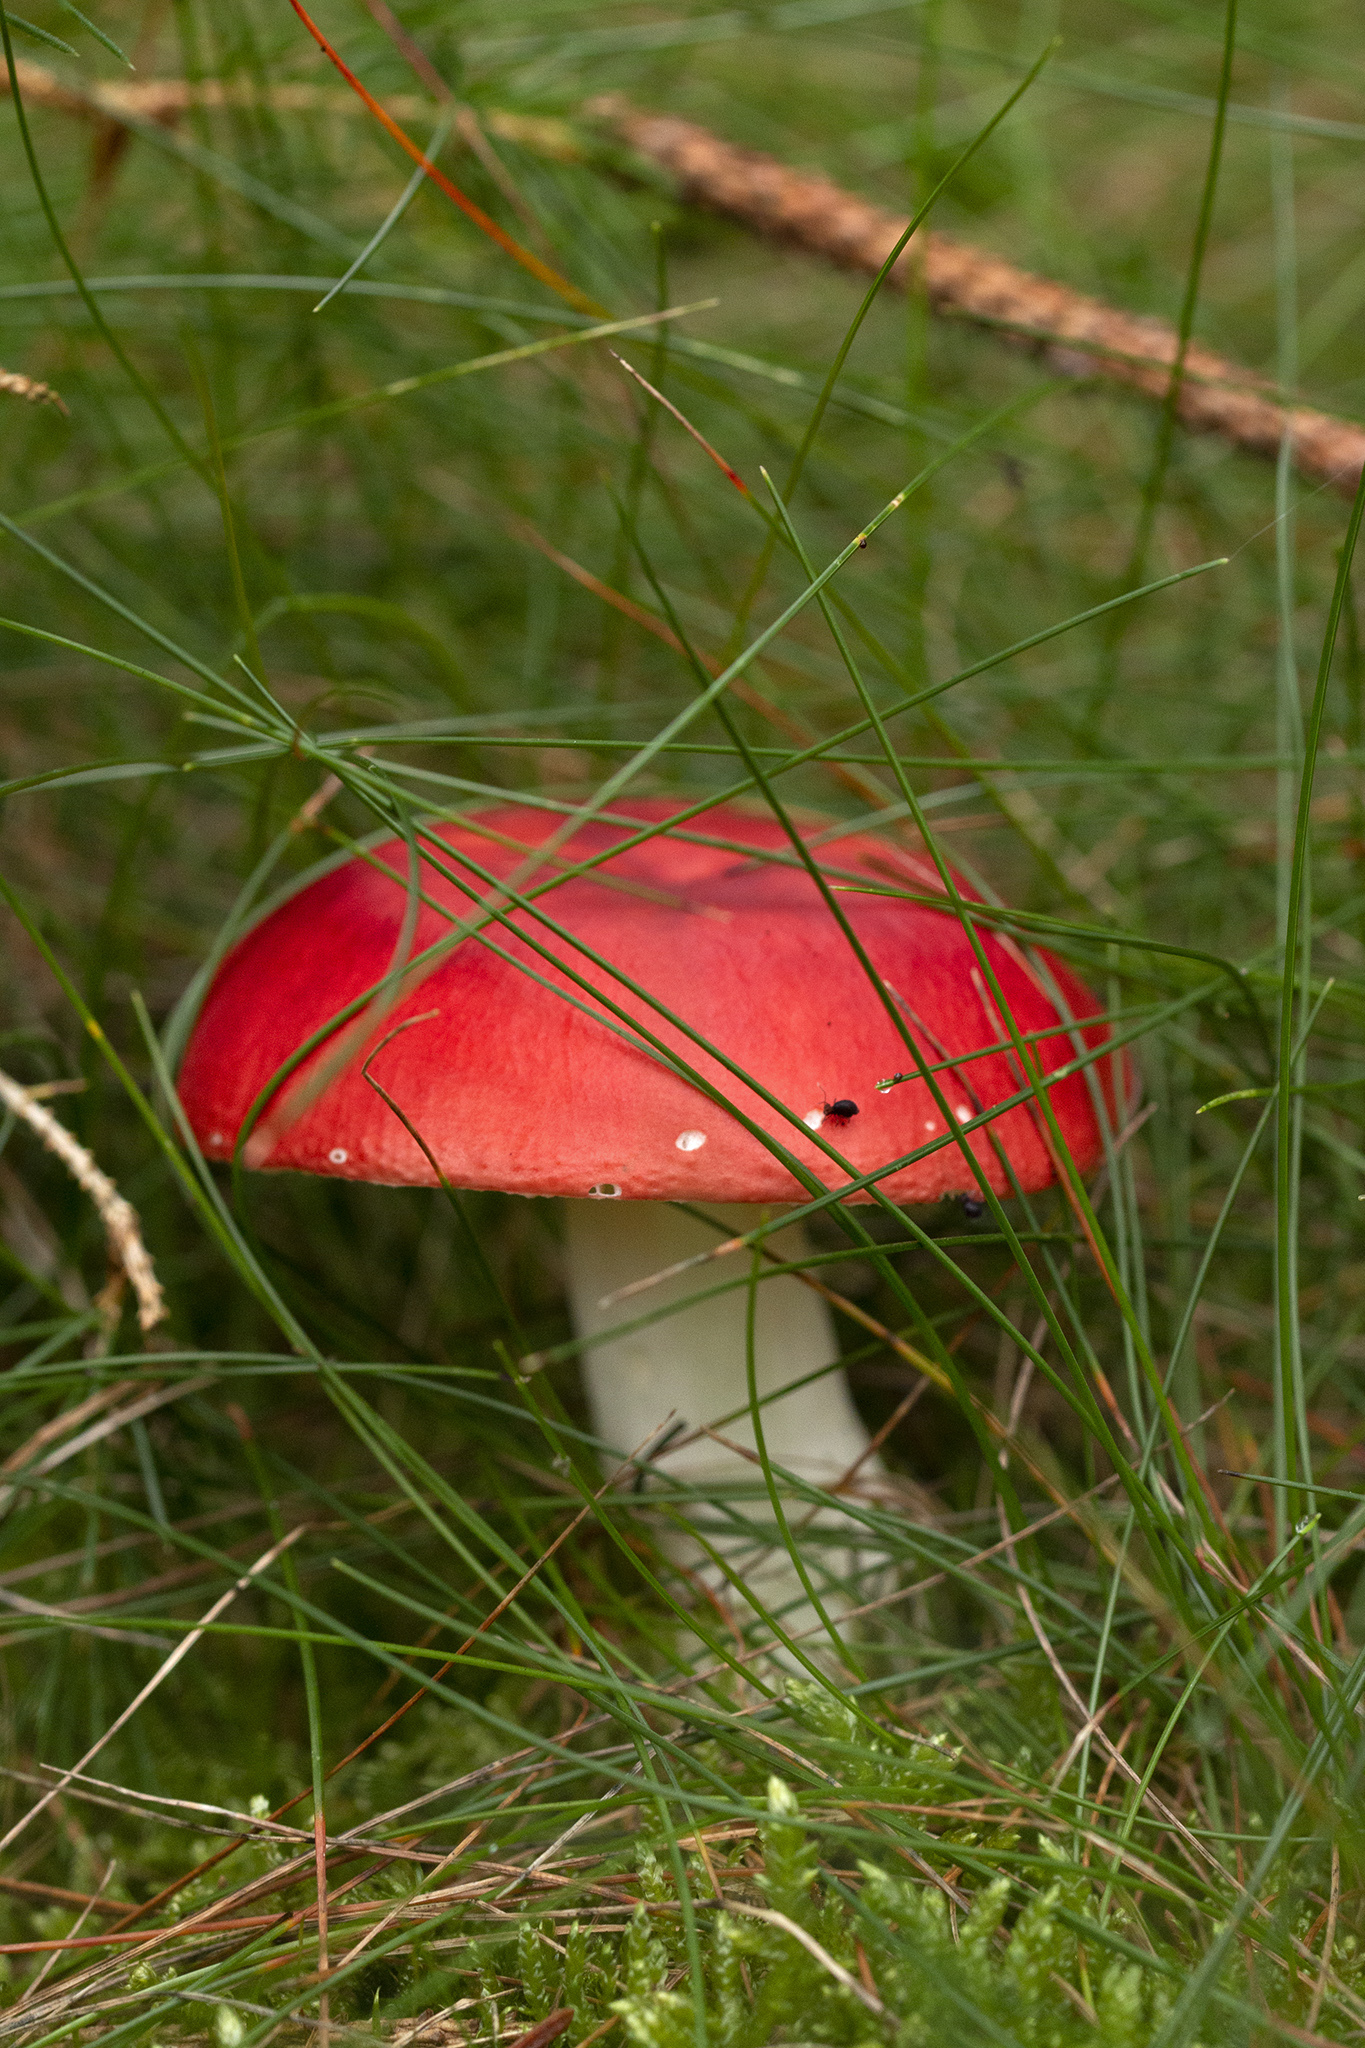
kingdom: Fungi
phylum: Basidiomycota
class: Agaricomycetes
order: Agaricales
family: Amanitaceae
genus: Amanita
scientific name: Amanita muscaria
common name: Fly agaric
